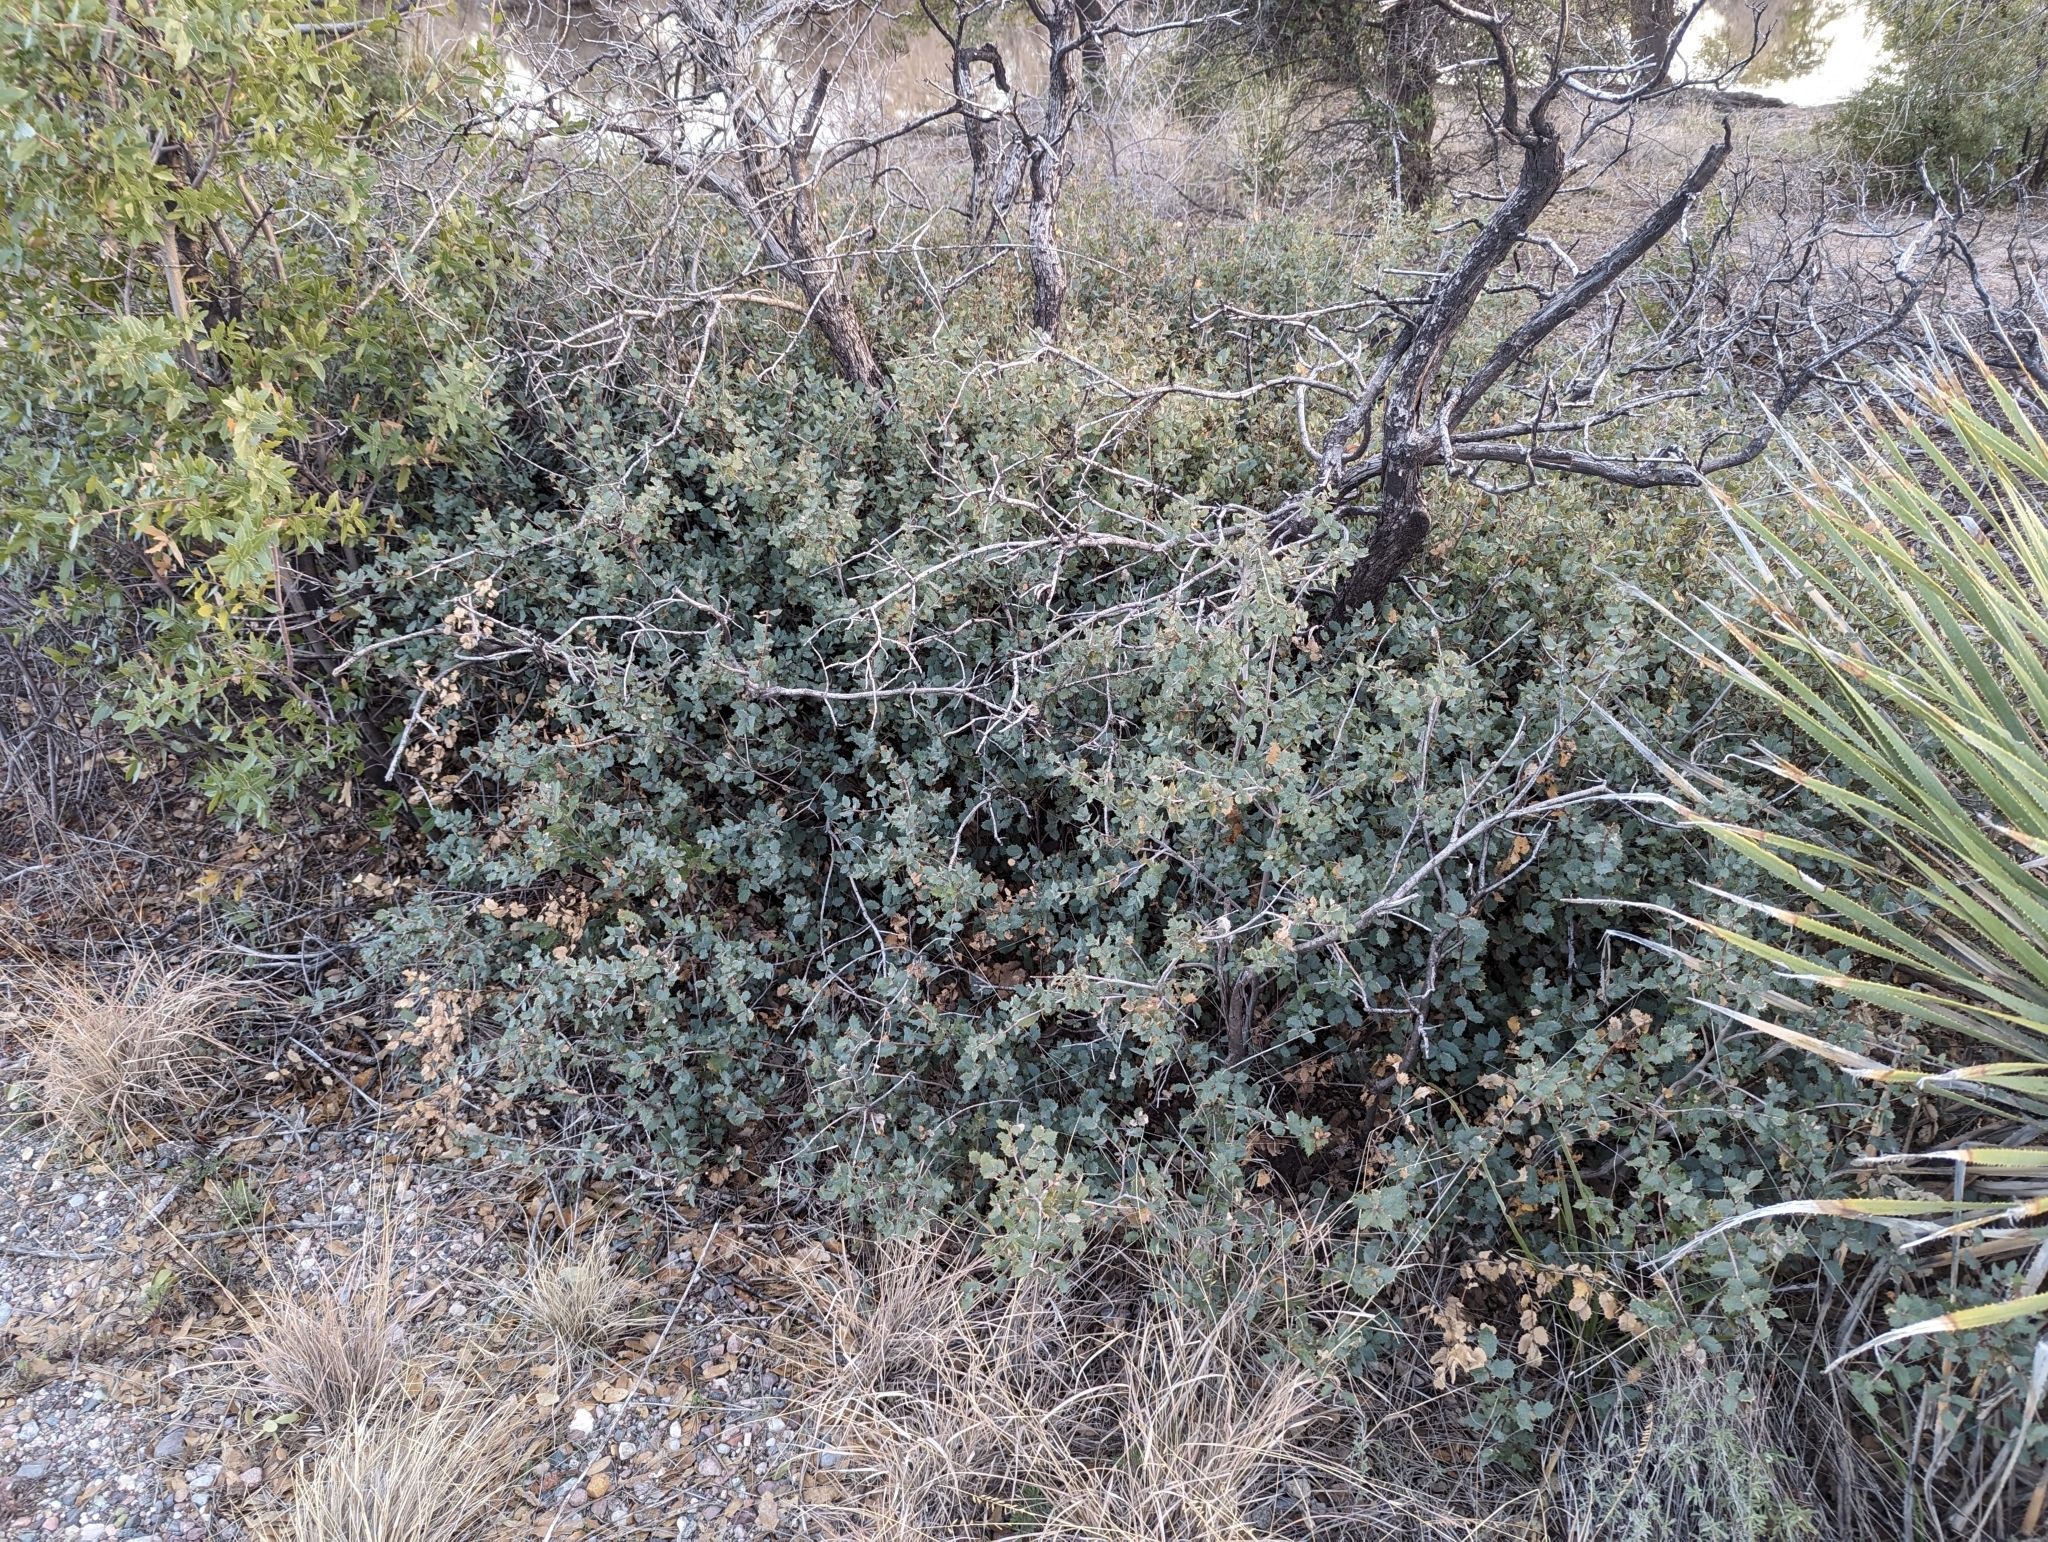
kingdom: Plantae
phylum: Tracheophyta
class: Magnoliopsida
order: Fagales
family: Fagaceae
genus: Quercus
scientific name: Quercus turbinella
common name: Sonoran scrub oak
